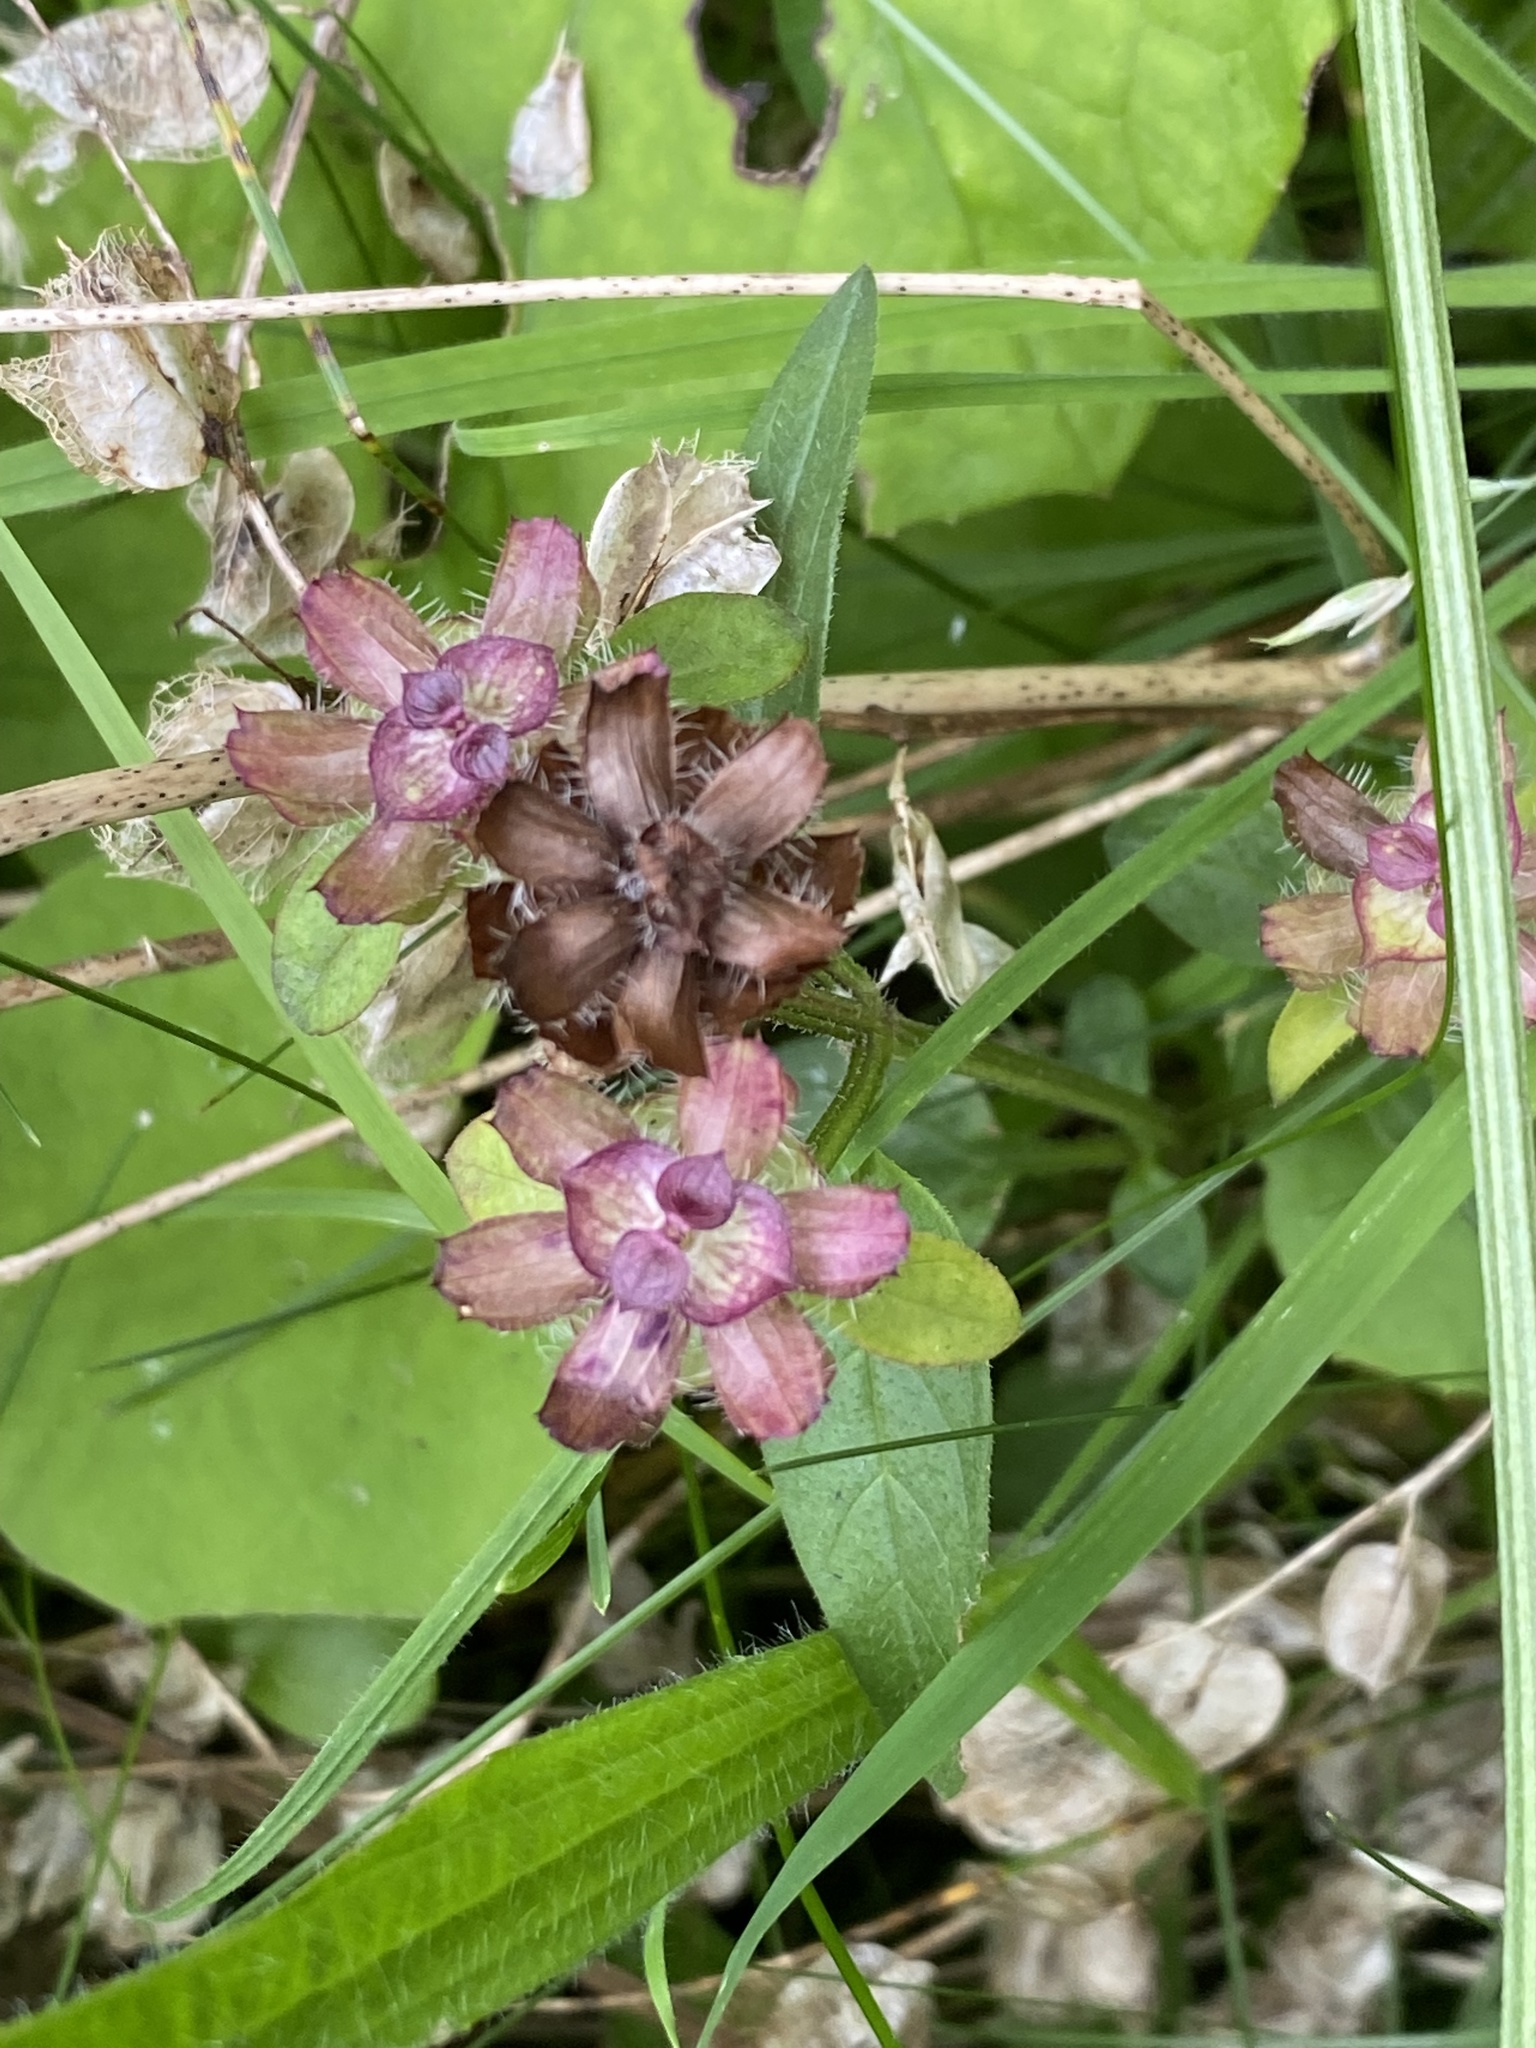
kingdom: Plantae
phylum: Tracheophyta
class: Magnoliopsida
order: Lamiales
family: Lamiaceae
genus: Prunella
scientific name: Prunella vulgaris
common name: Heal-all
